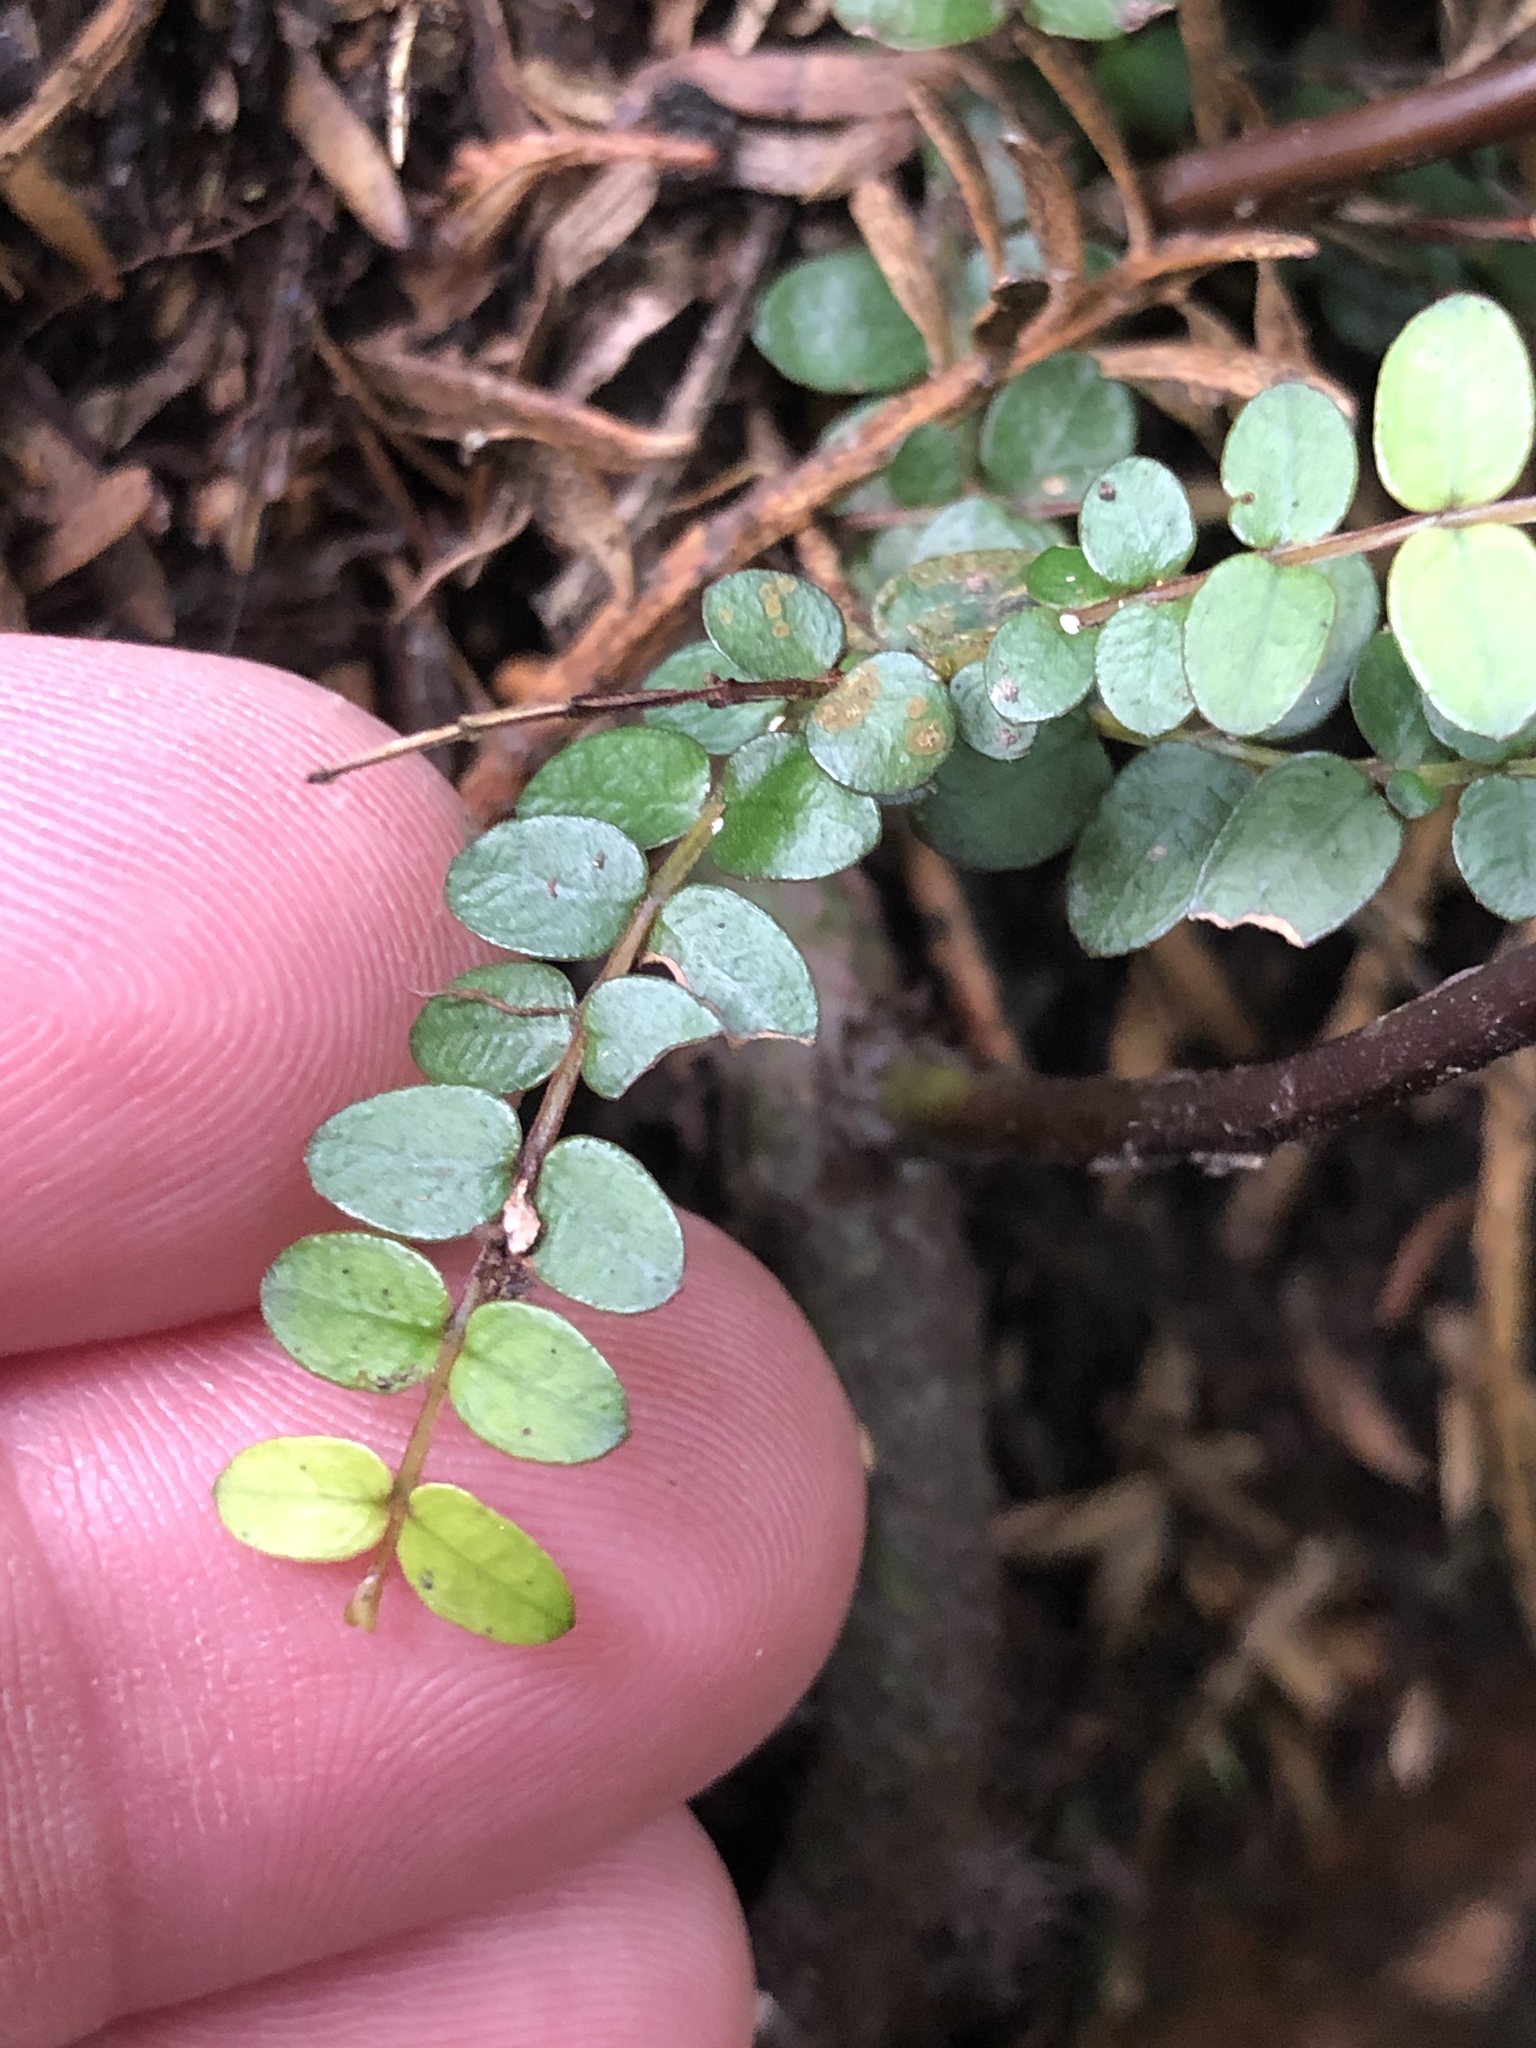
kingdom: Plantae
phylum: Tracheophyta
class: Magnoliopsida
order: Myrtales
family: Myrtaceae
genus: Metrosideros
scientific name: Metrosideros diffusa
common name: Small ratavine
